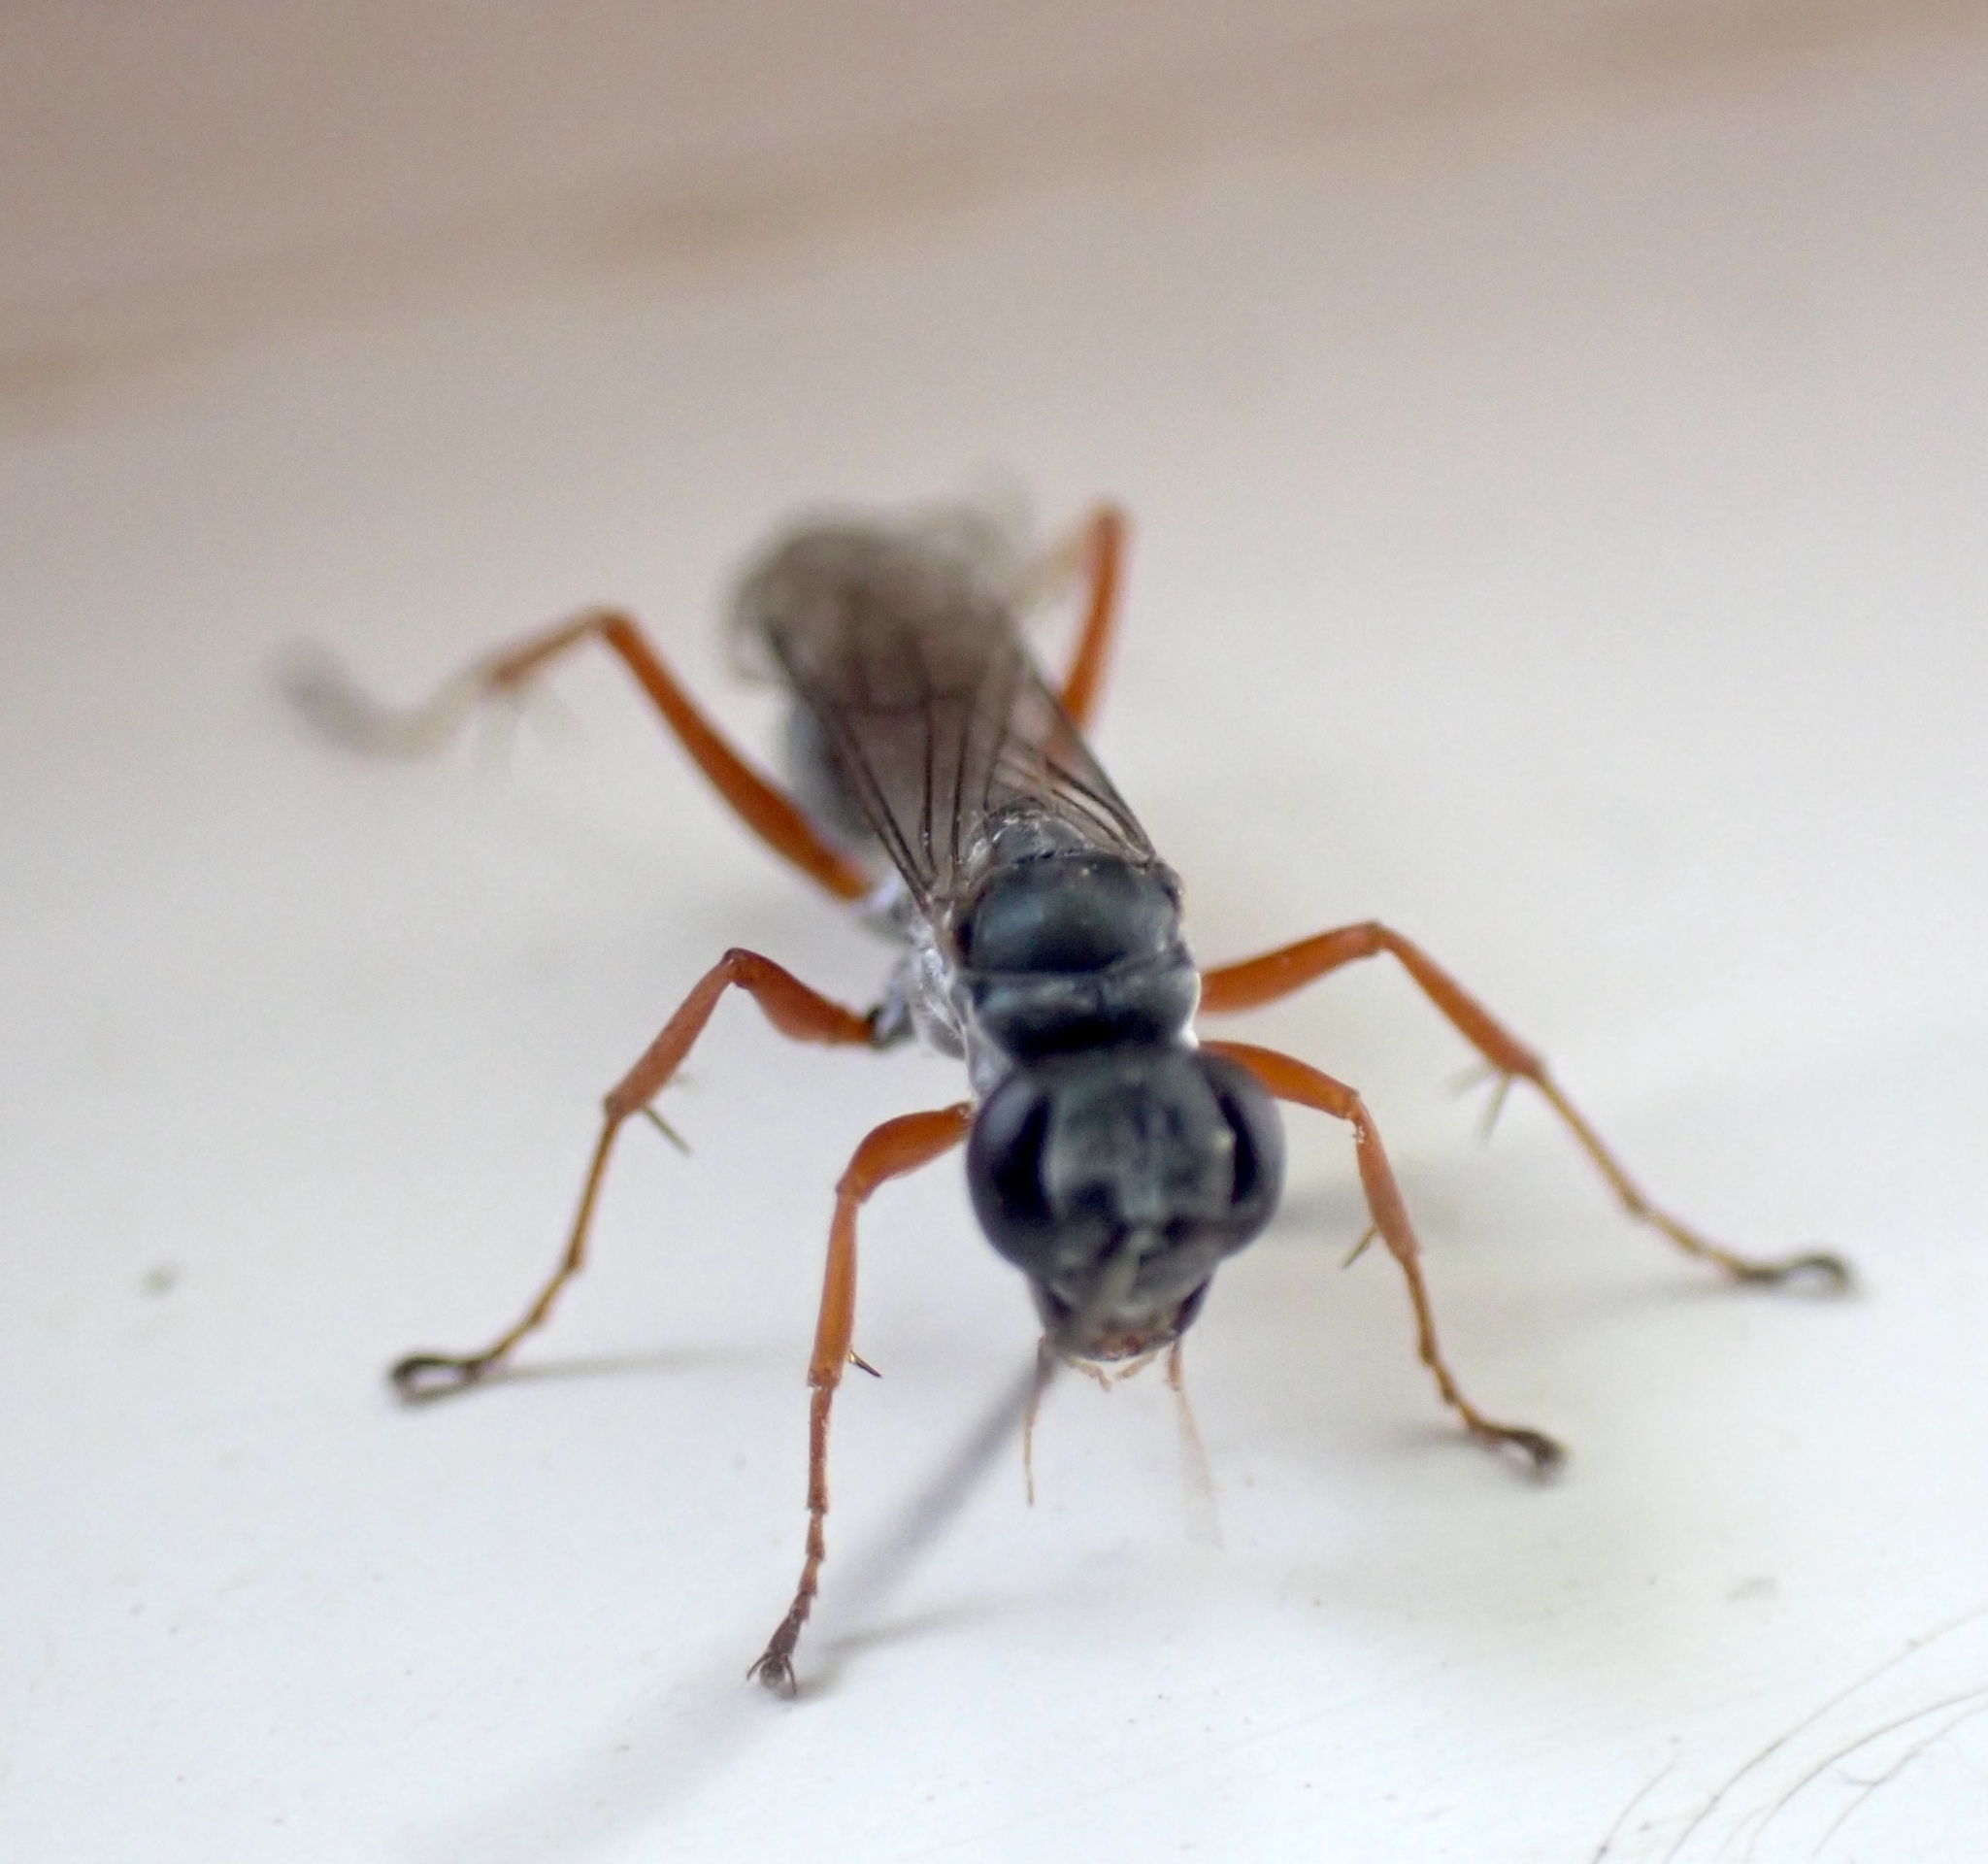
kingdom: Animalia
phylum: Arthropoda
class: Insecta
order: Hymenoptera
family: Pompilidae
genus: Auplopus
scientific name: Auplopus mellipes
